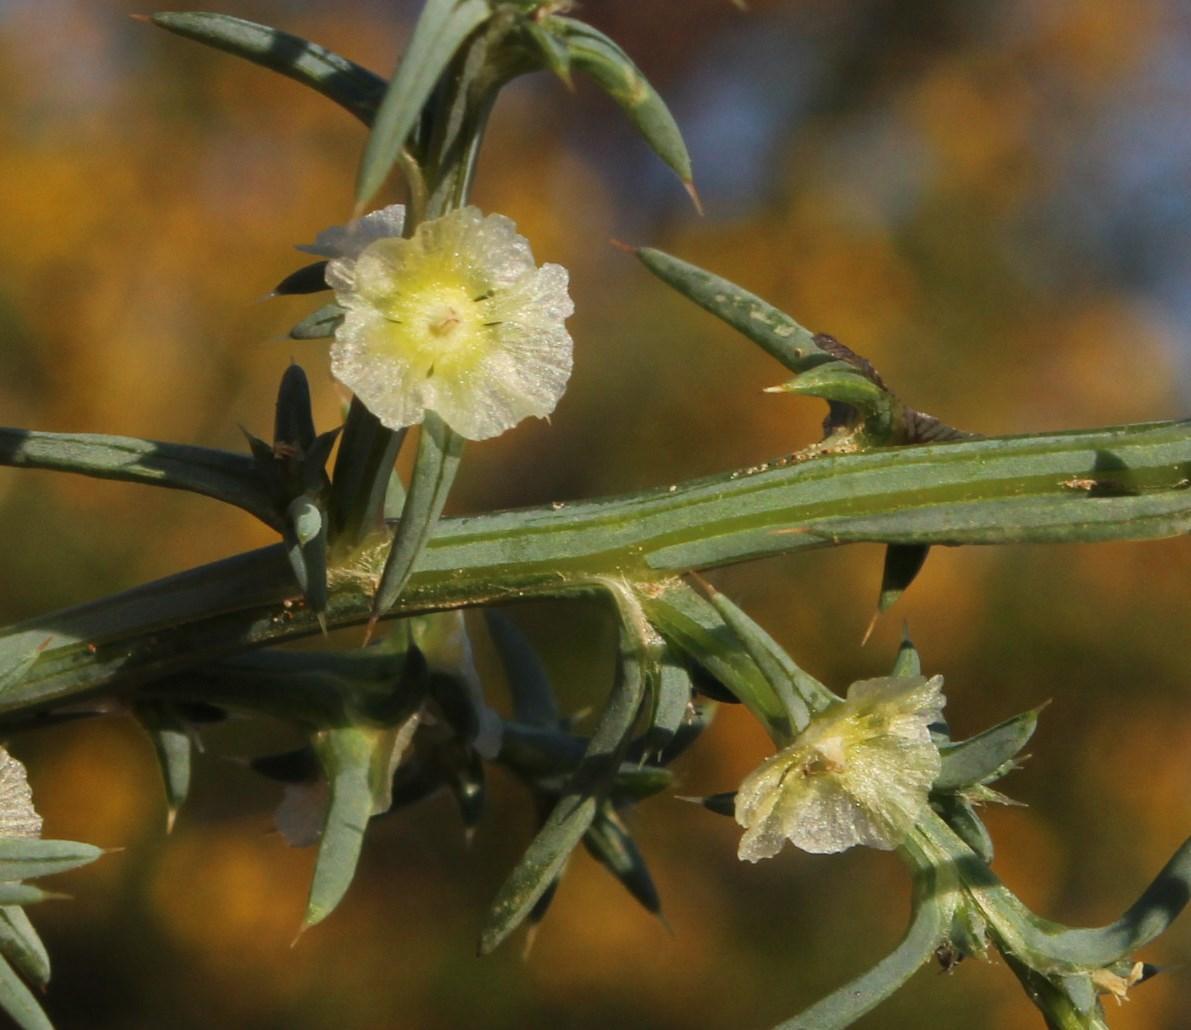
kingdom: Plantae
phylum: Tracheophyta
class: Magnoliopsida
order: Caryophyllales
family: Amaranthaceae
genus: Salsola
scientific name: Salsola kali
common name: Saltwort
